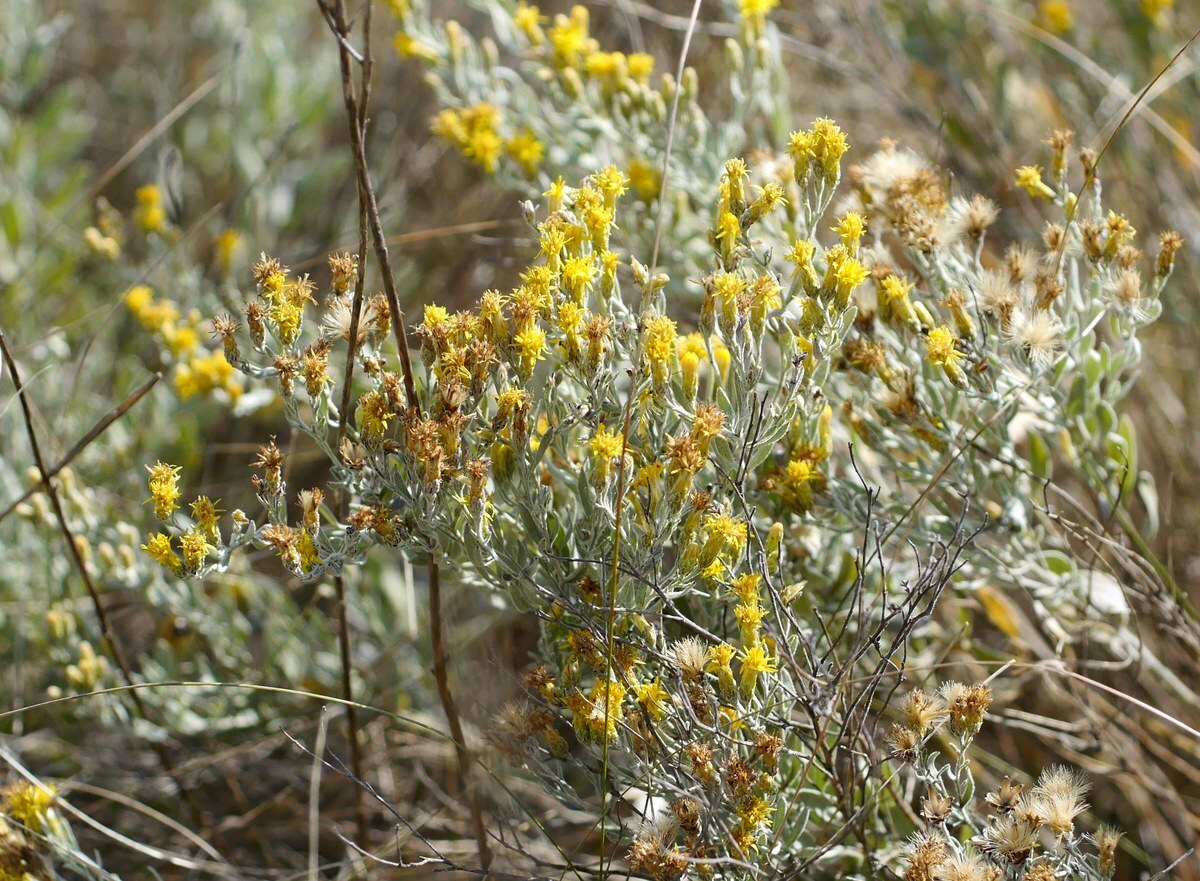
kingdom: Plantae
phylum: Tracheophyta
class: Magnoliopsida
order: Asterales
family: Asteraceae
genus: Galatella
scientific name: Galatella villosa
